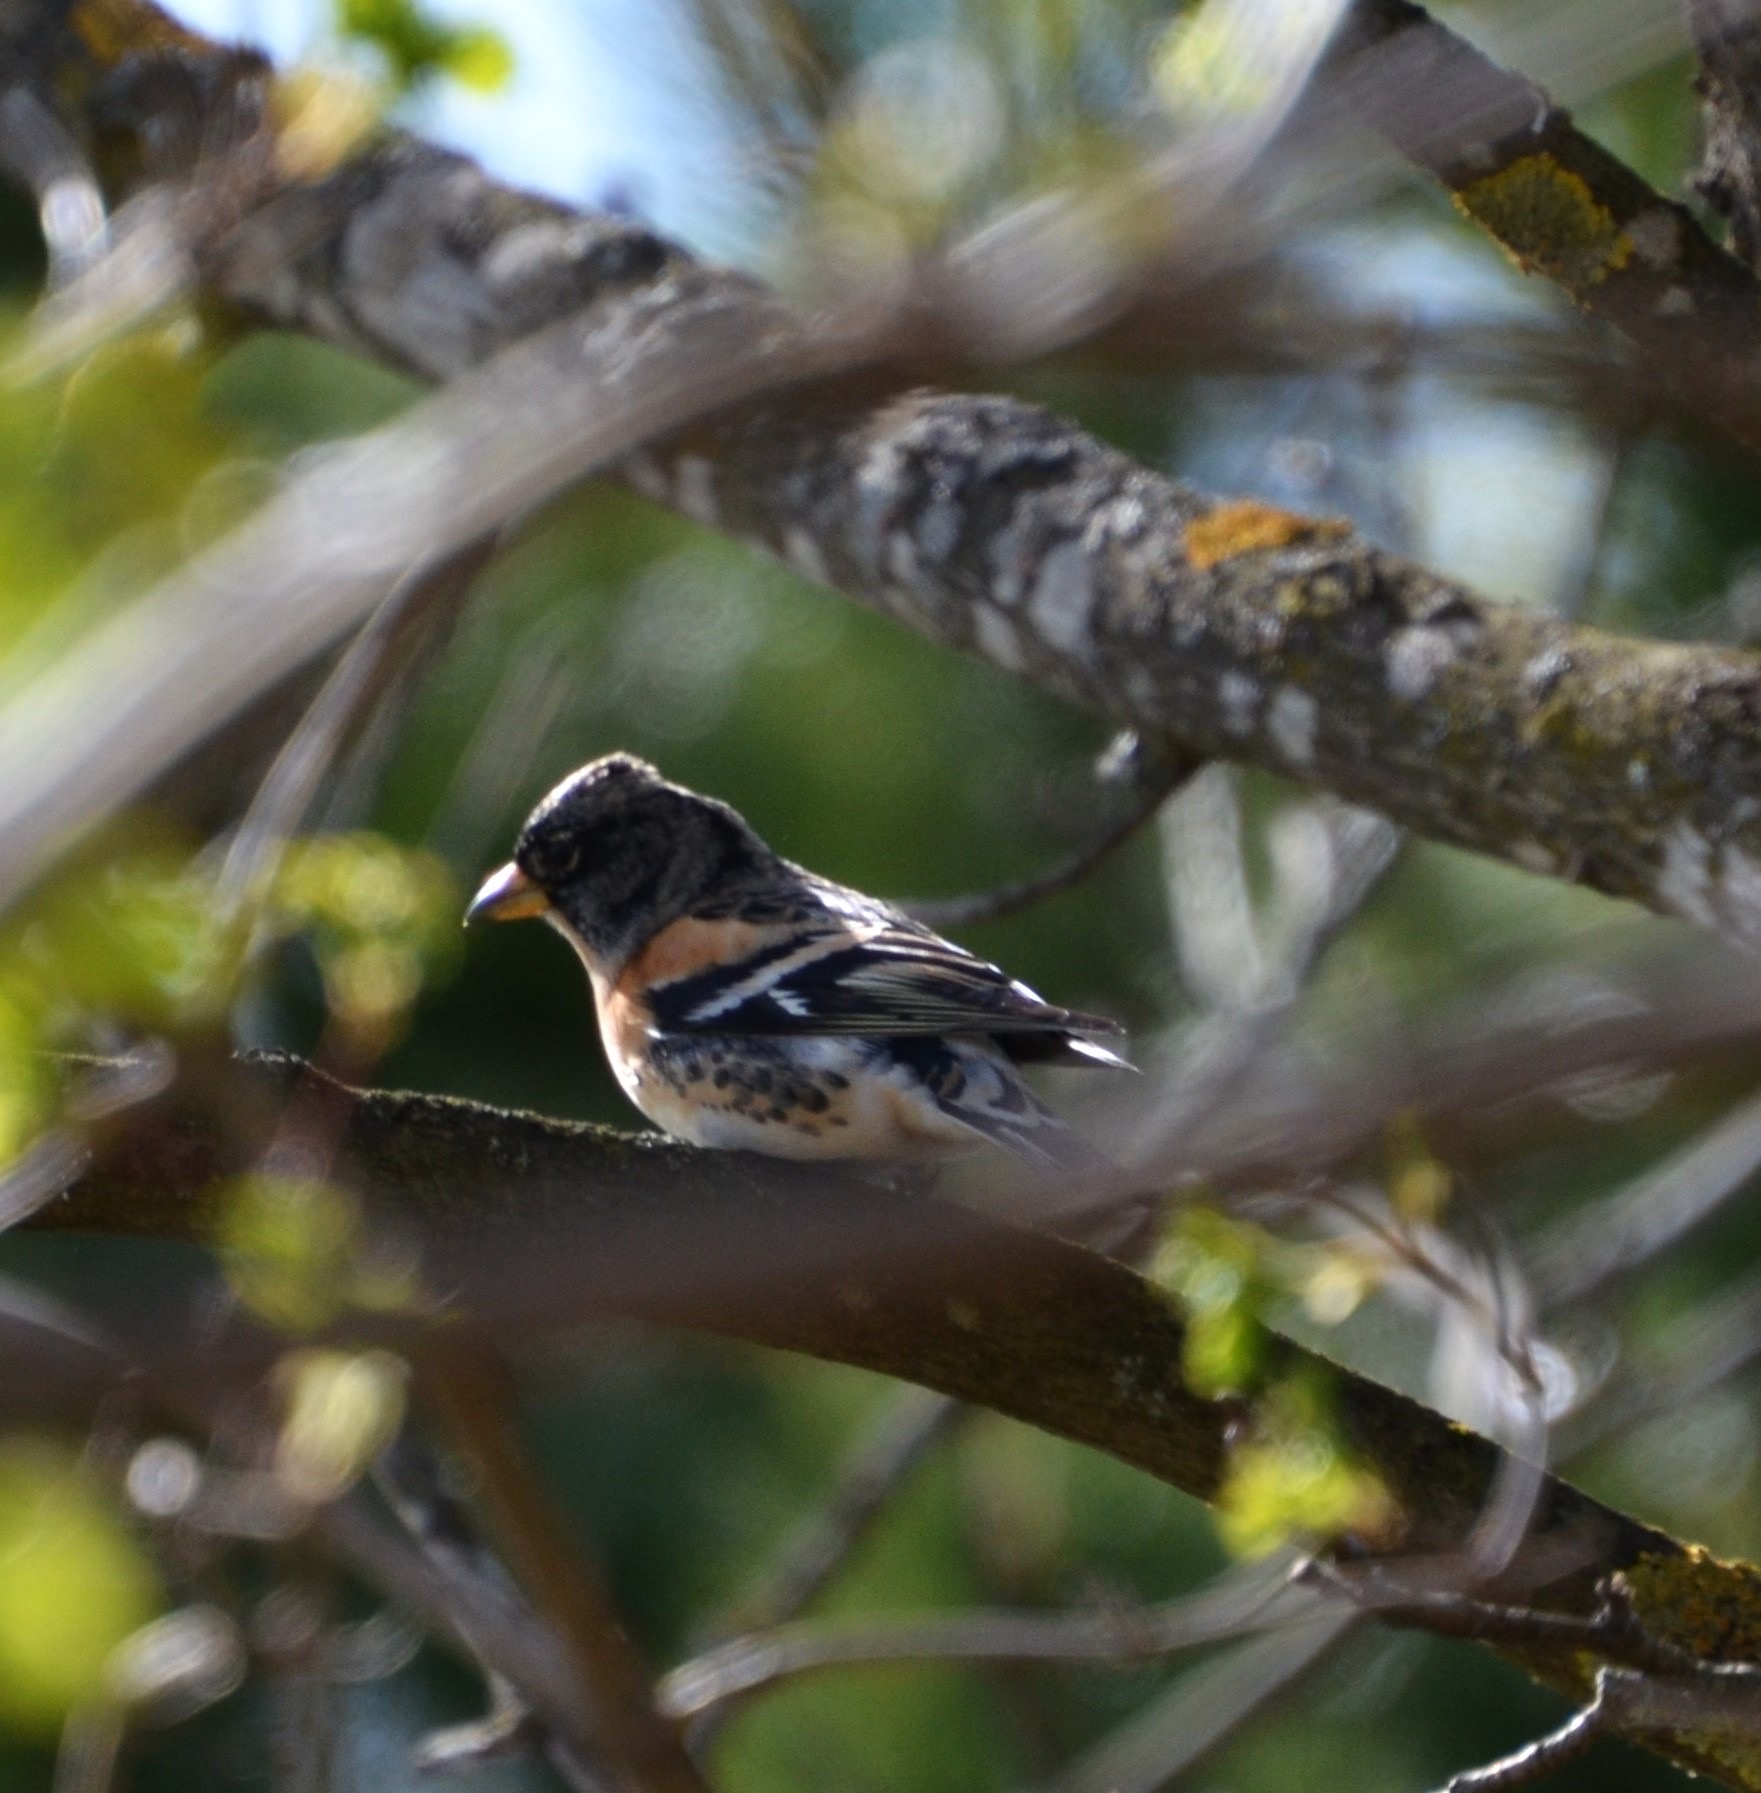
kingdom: Animalia
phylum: Chordata
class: Aves
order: Passeriformes
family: Fringillidae
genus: Fringilla
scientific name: Fringilla montifringilla
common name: Brambling
